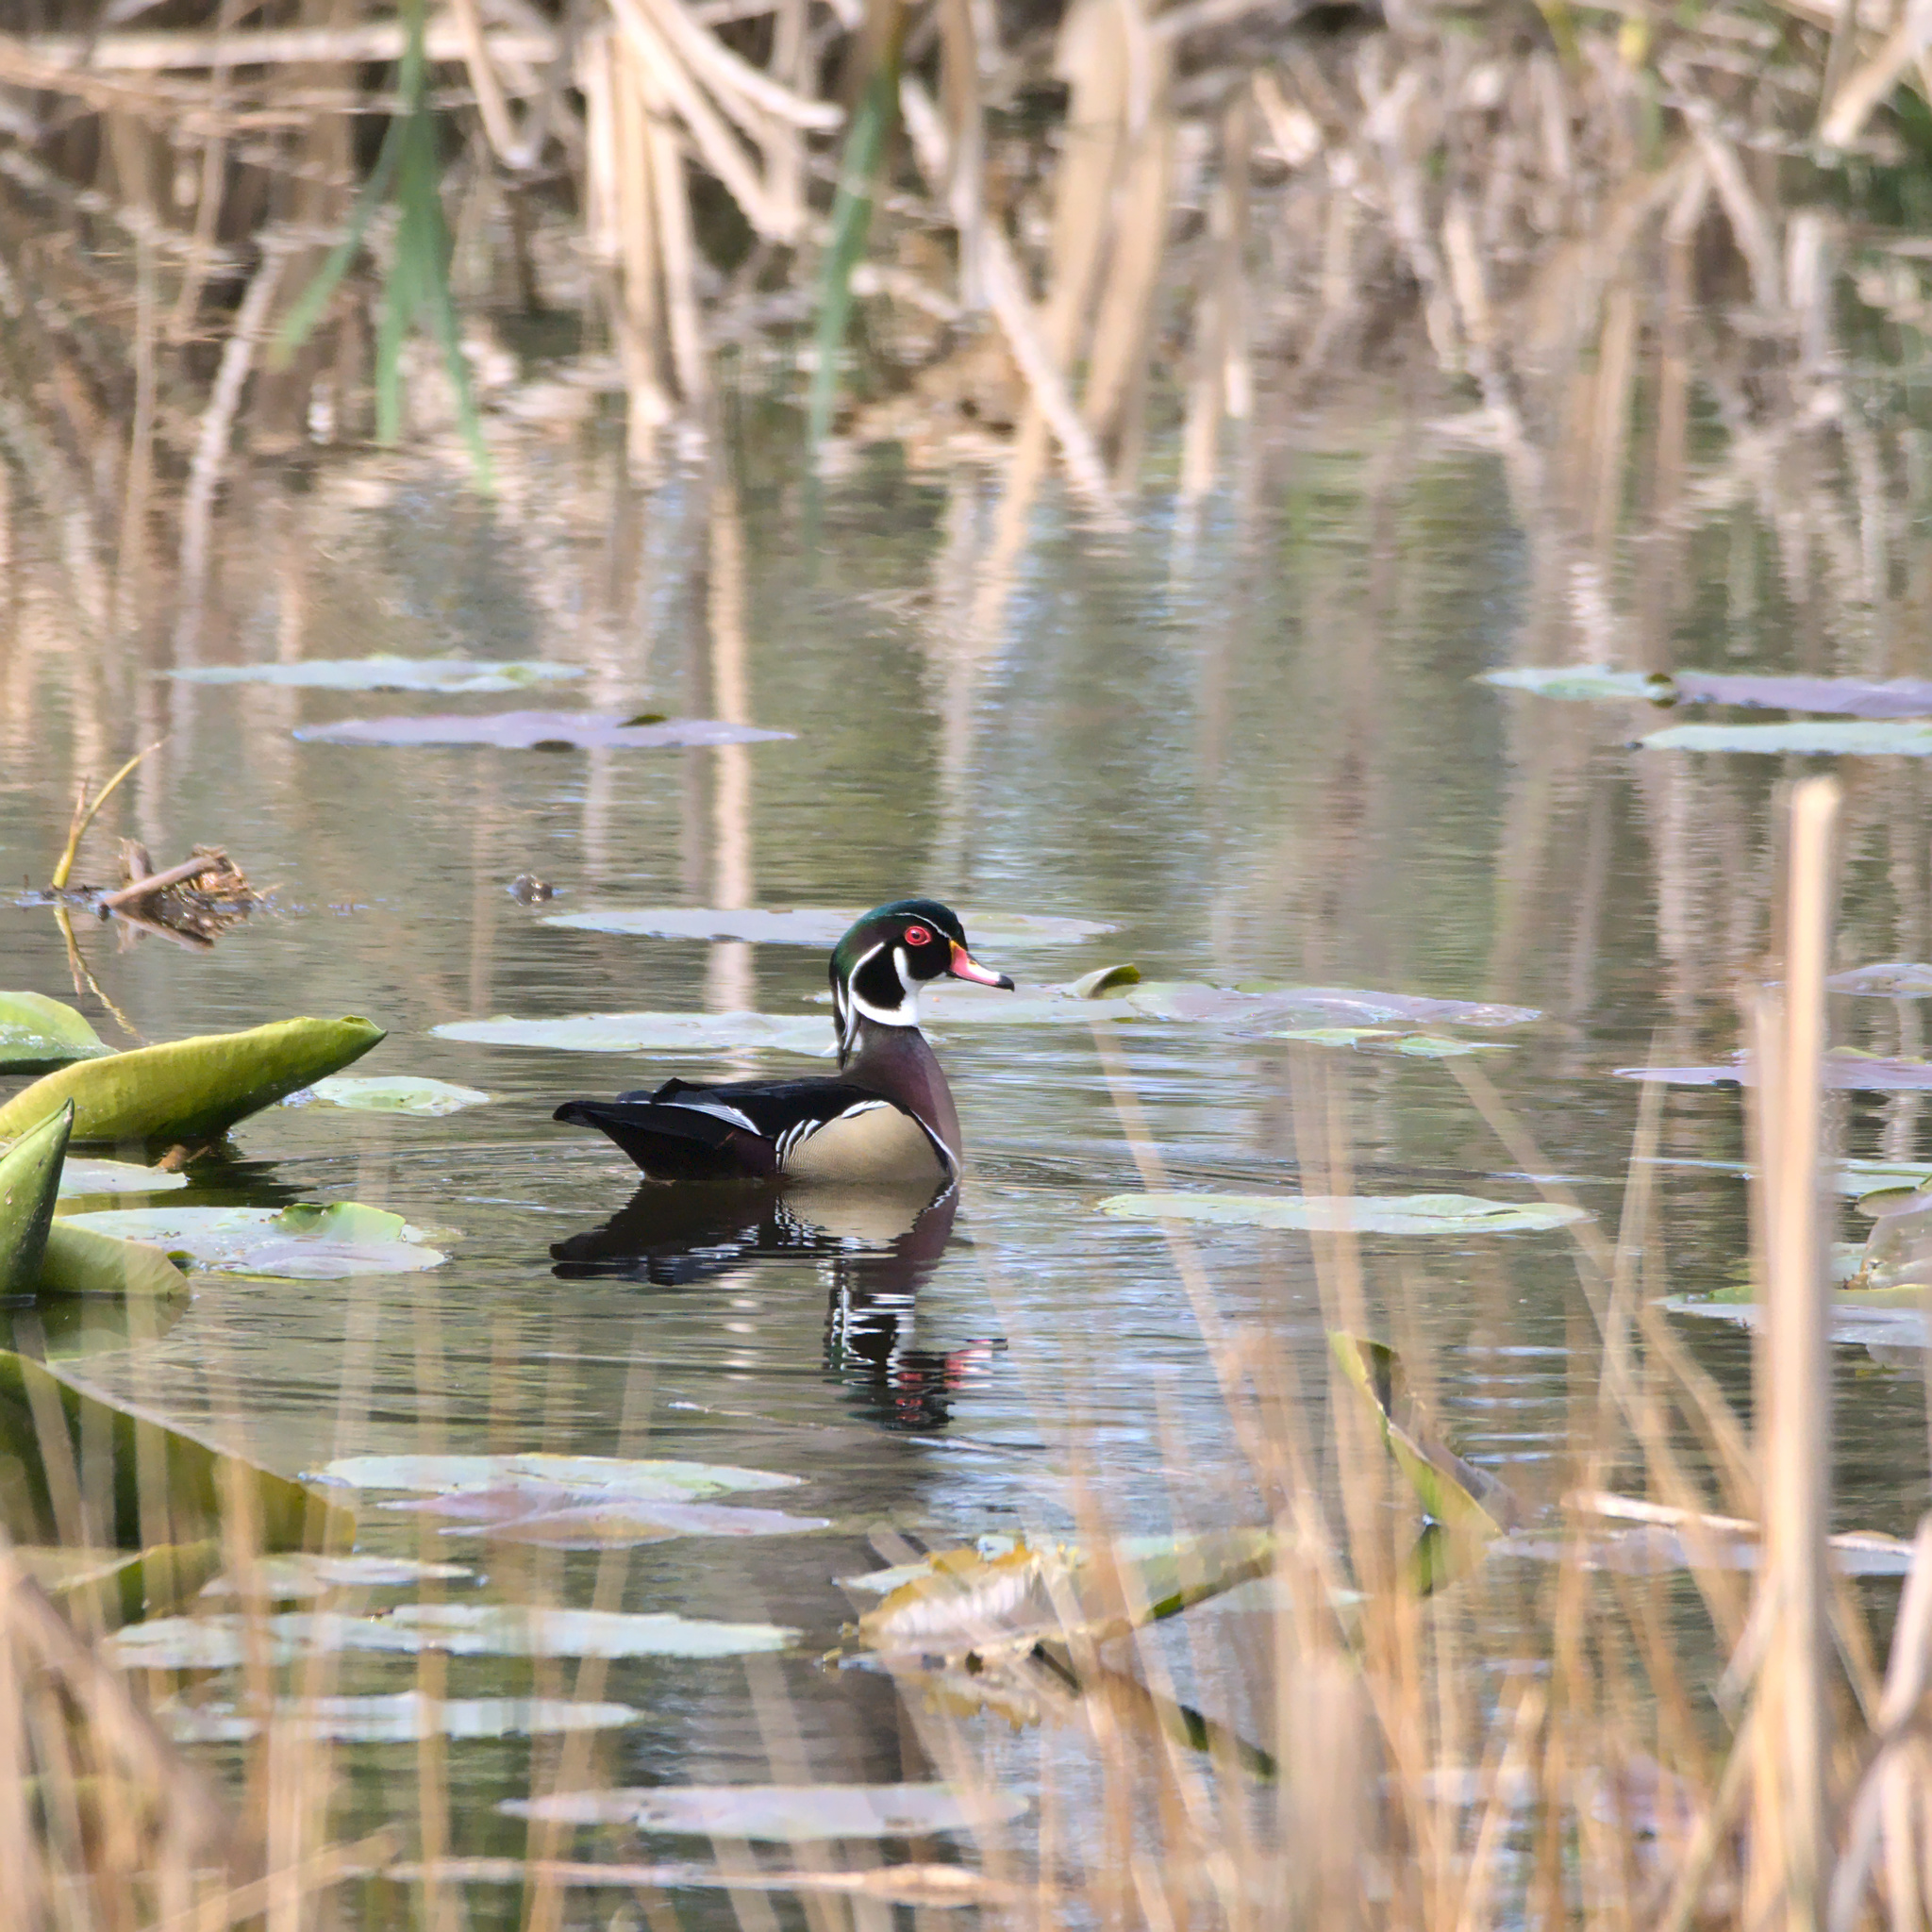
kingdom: Animalia
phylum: Chordata
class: Aves
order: Anseriformes
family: Anatidae
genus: Aix
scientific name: Aix sponsa
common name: Wood duck
